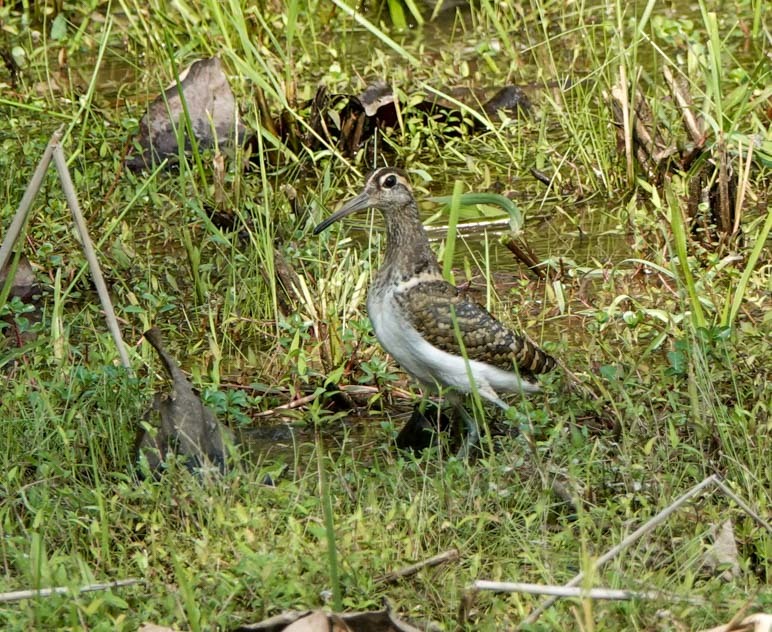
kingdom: Animalia
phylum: Chordata
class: Aves
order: Charadriiformes
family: Rostratulidae
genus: Rostratula
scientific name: Rostratula benghalensis
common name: Greater painted-snipe
